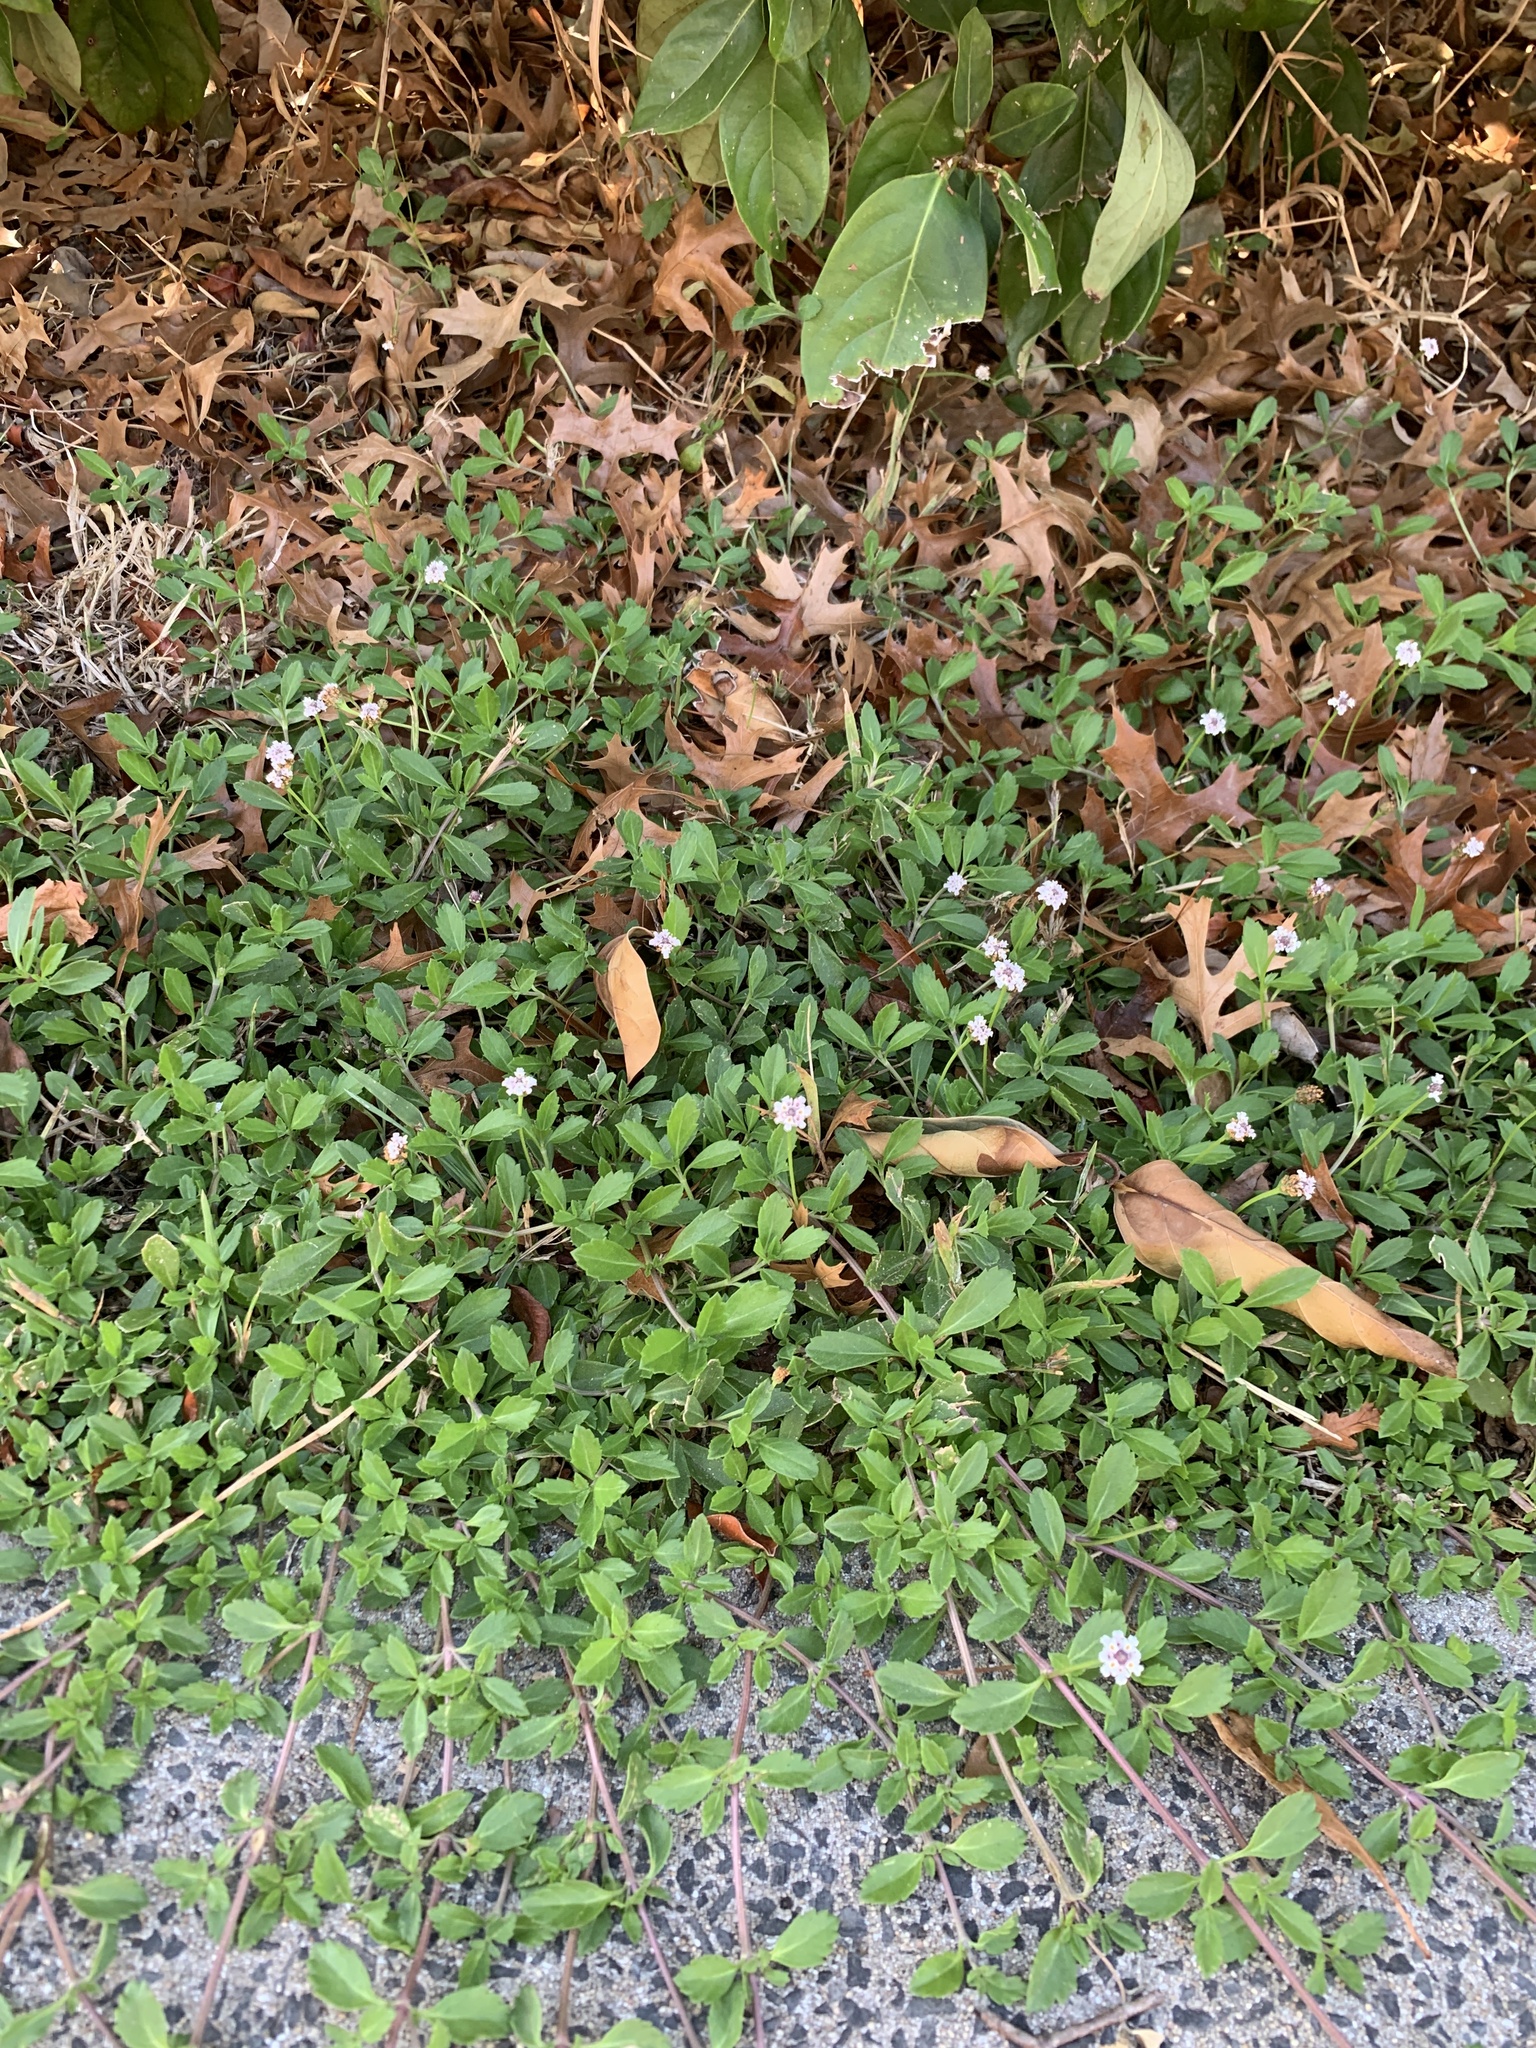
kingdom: Plantae
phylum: Tracheophyta
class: Magnoliopsida
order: Lamiales
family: Verbenaceae
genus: Phyla
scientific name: Phyla nodiflora
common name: Frogfruit
